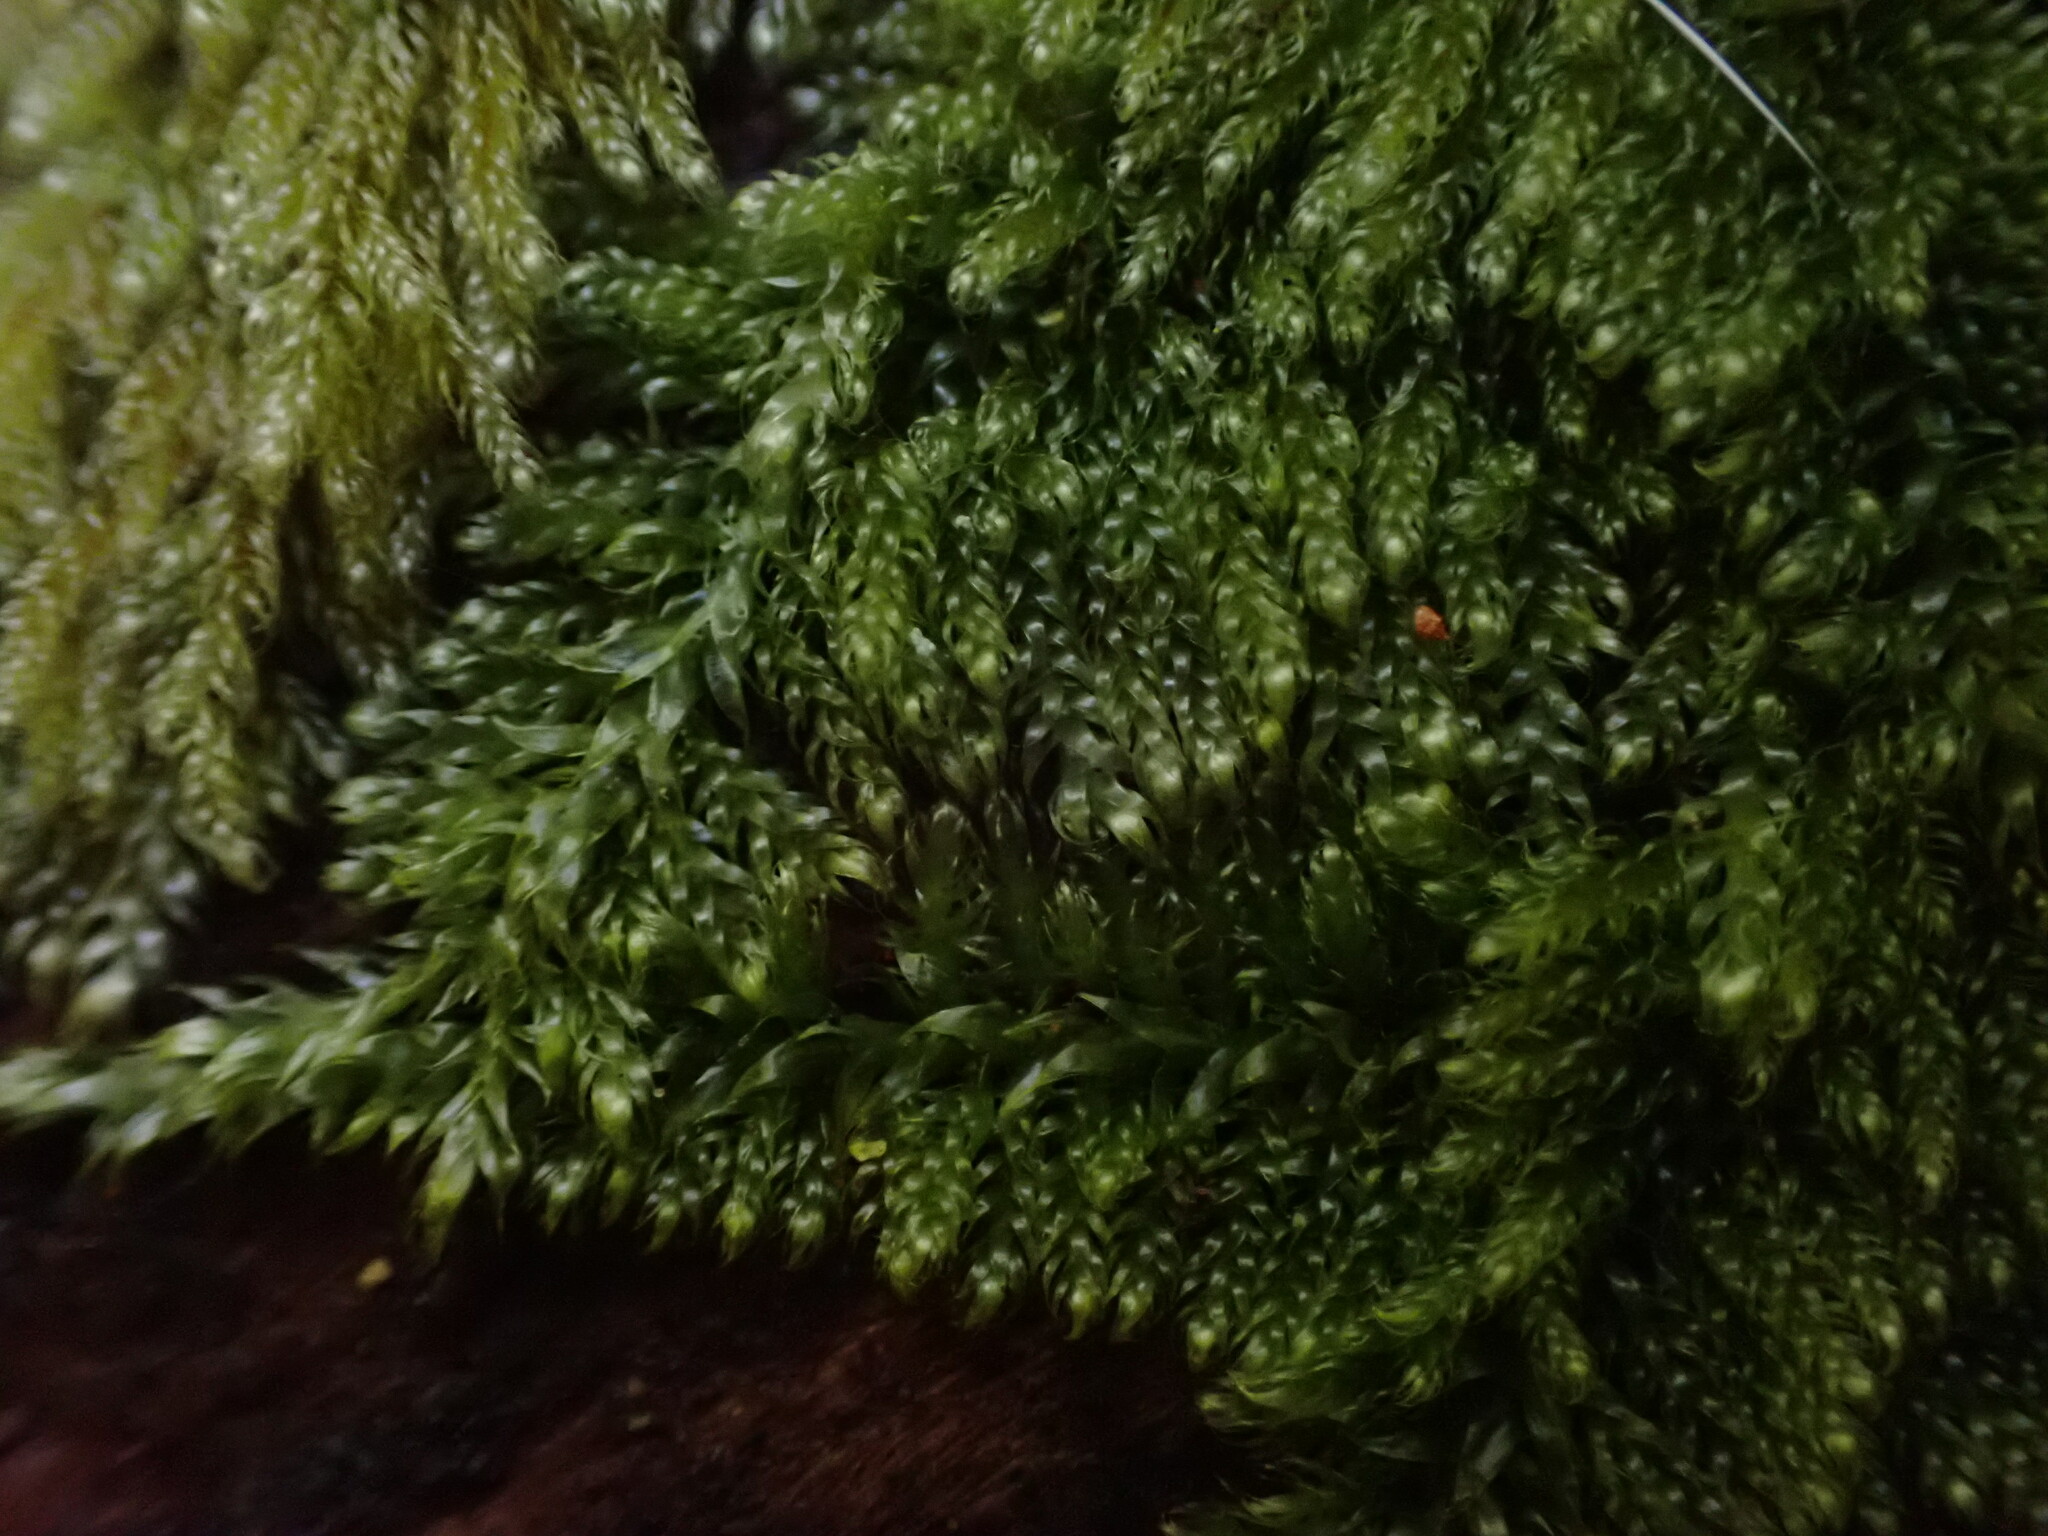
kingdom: Plantae
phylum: Bryophyta
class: Bryopsida
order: Hypnales
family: Pylaisiadelphaceae
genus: Trochophyllohypnum
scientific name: Trochophyllohypnum circinale
